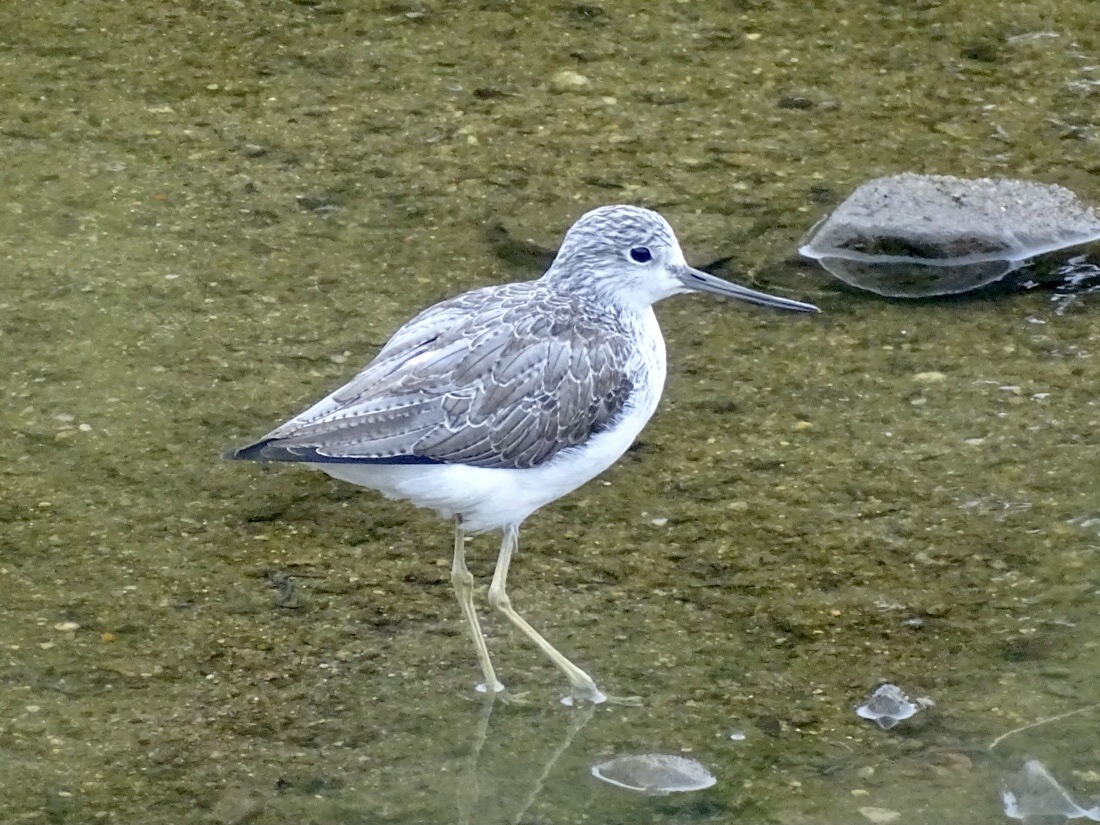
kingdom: Animalia
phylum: Chordata
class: Aves
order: Charadriiformes
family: Scolopacidae
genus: Tringa
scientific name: Tringa nebularia
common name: Common greenshank
